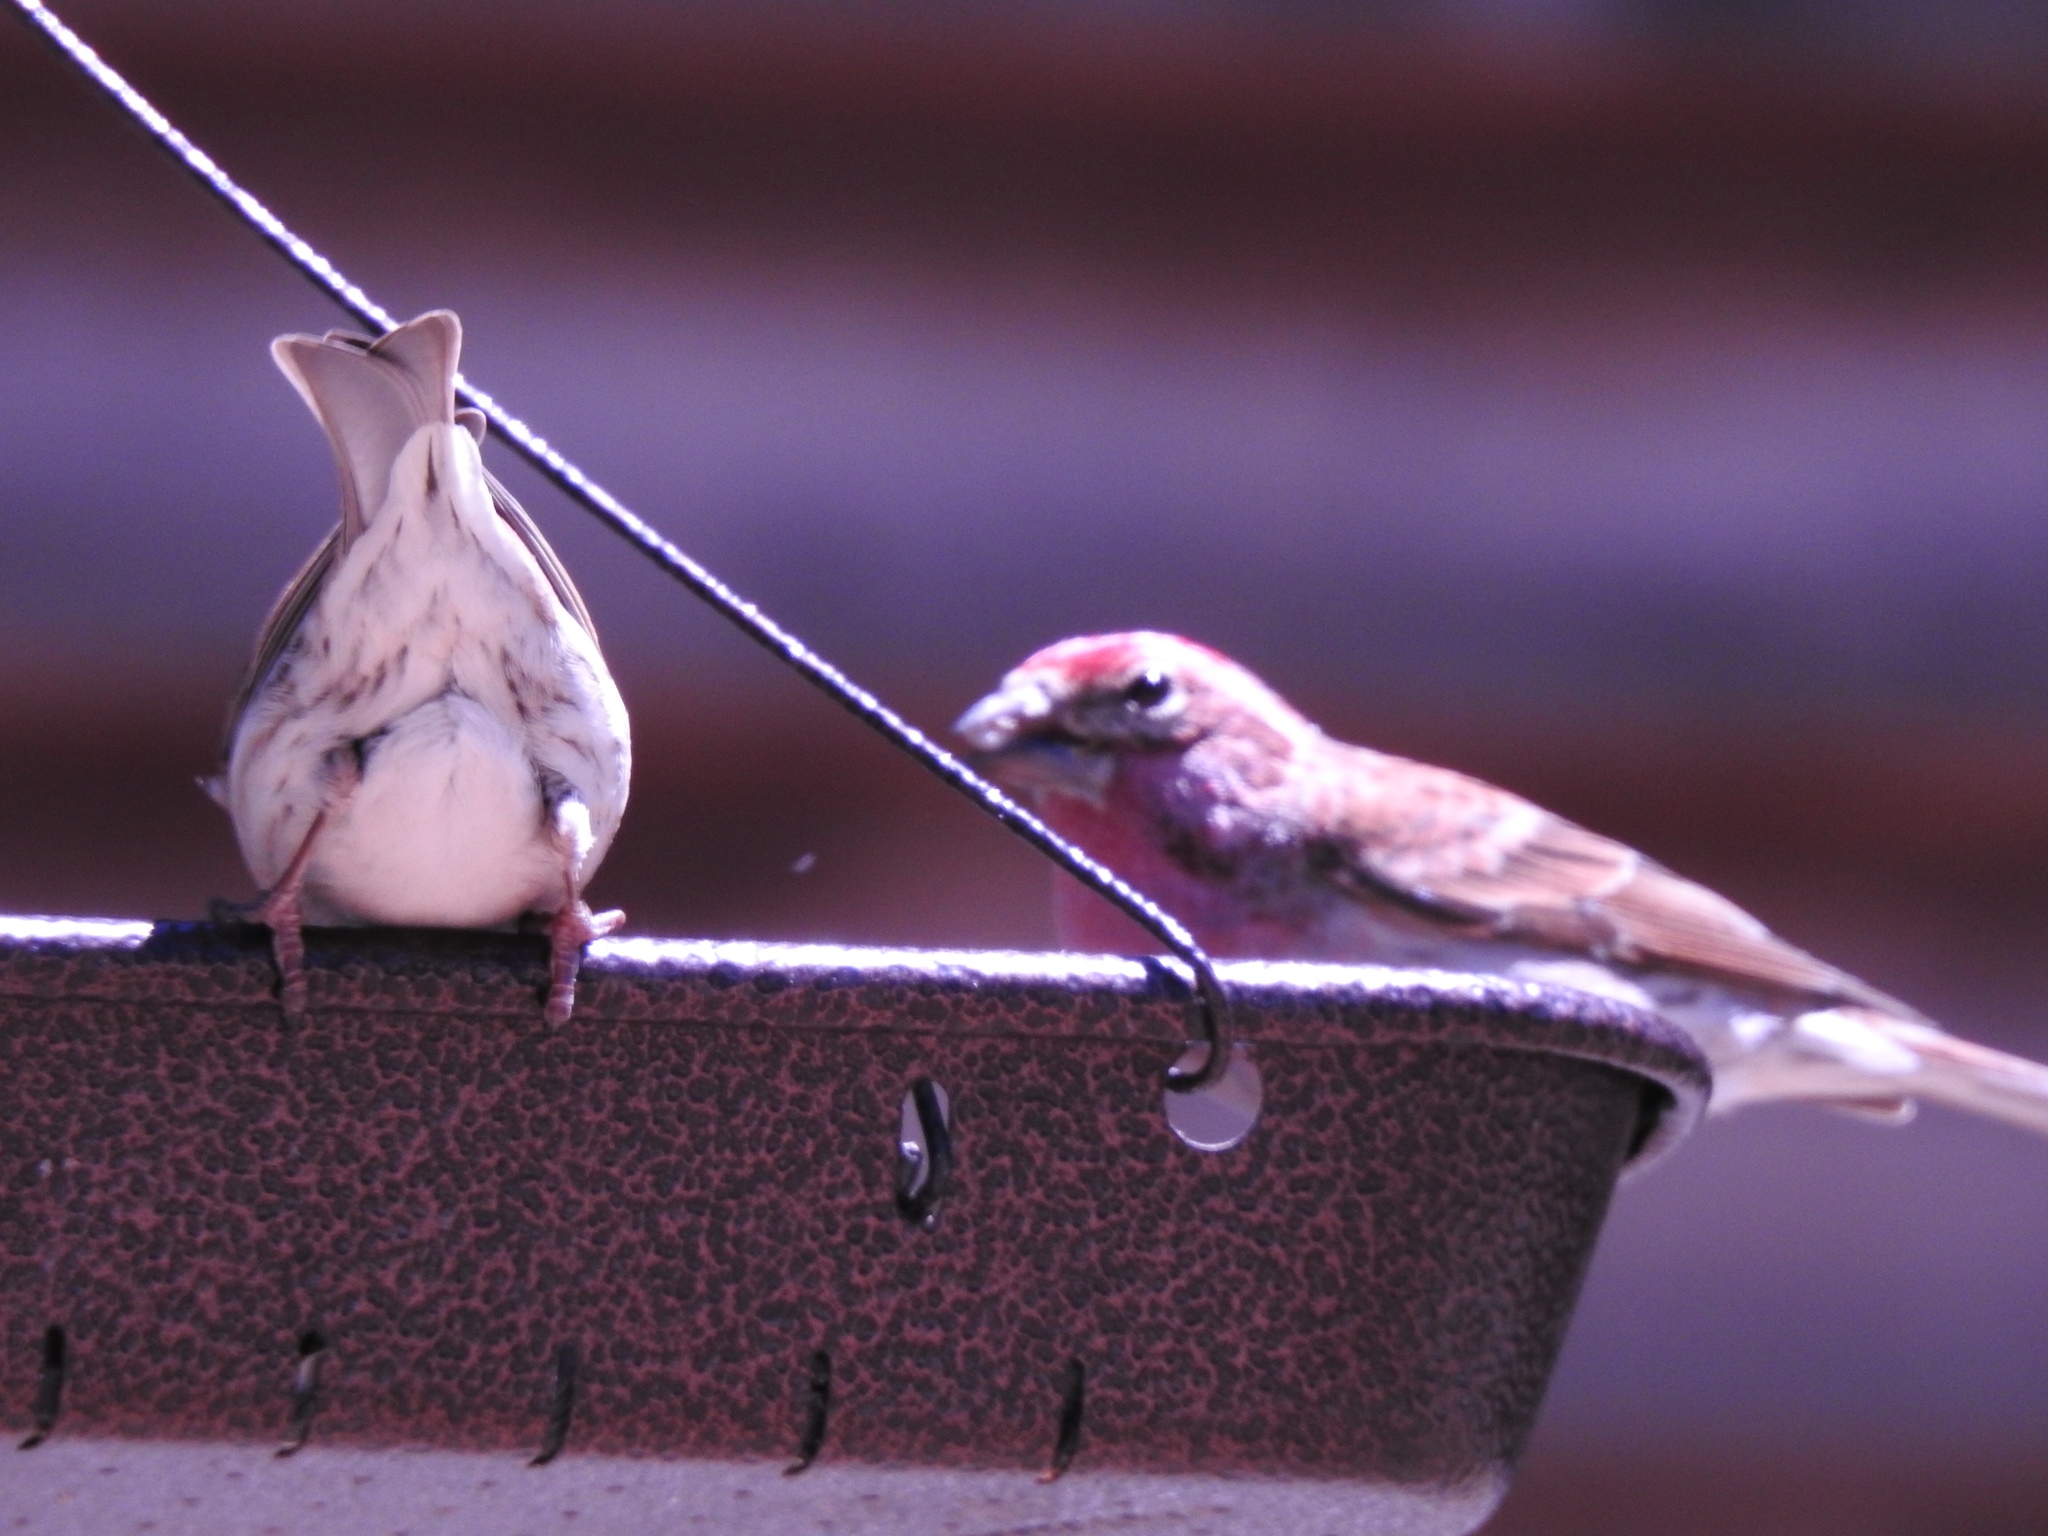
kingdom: Animalia
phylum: Chordata
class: Aves
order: Passeriformes
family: Fringillidae
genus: Haemorhous
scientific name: Haemorhous cassinii
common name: Cassin's finch
